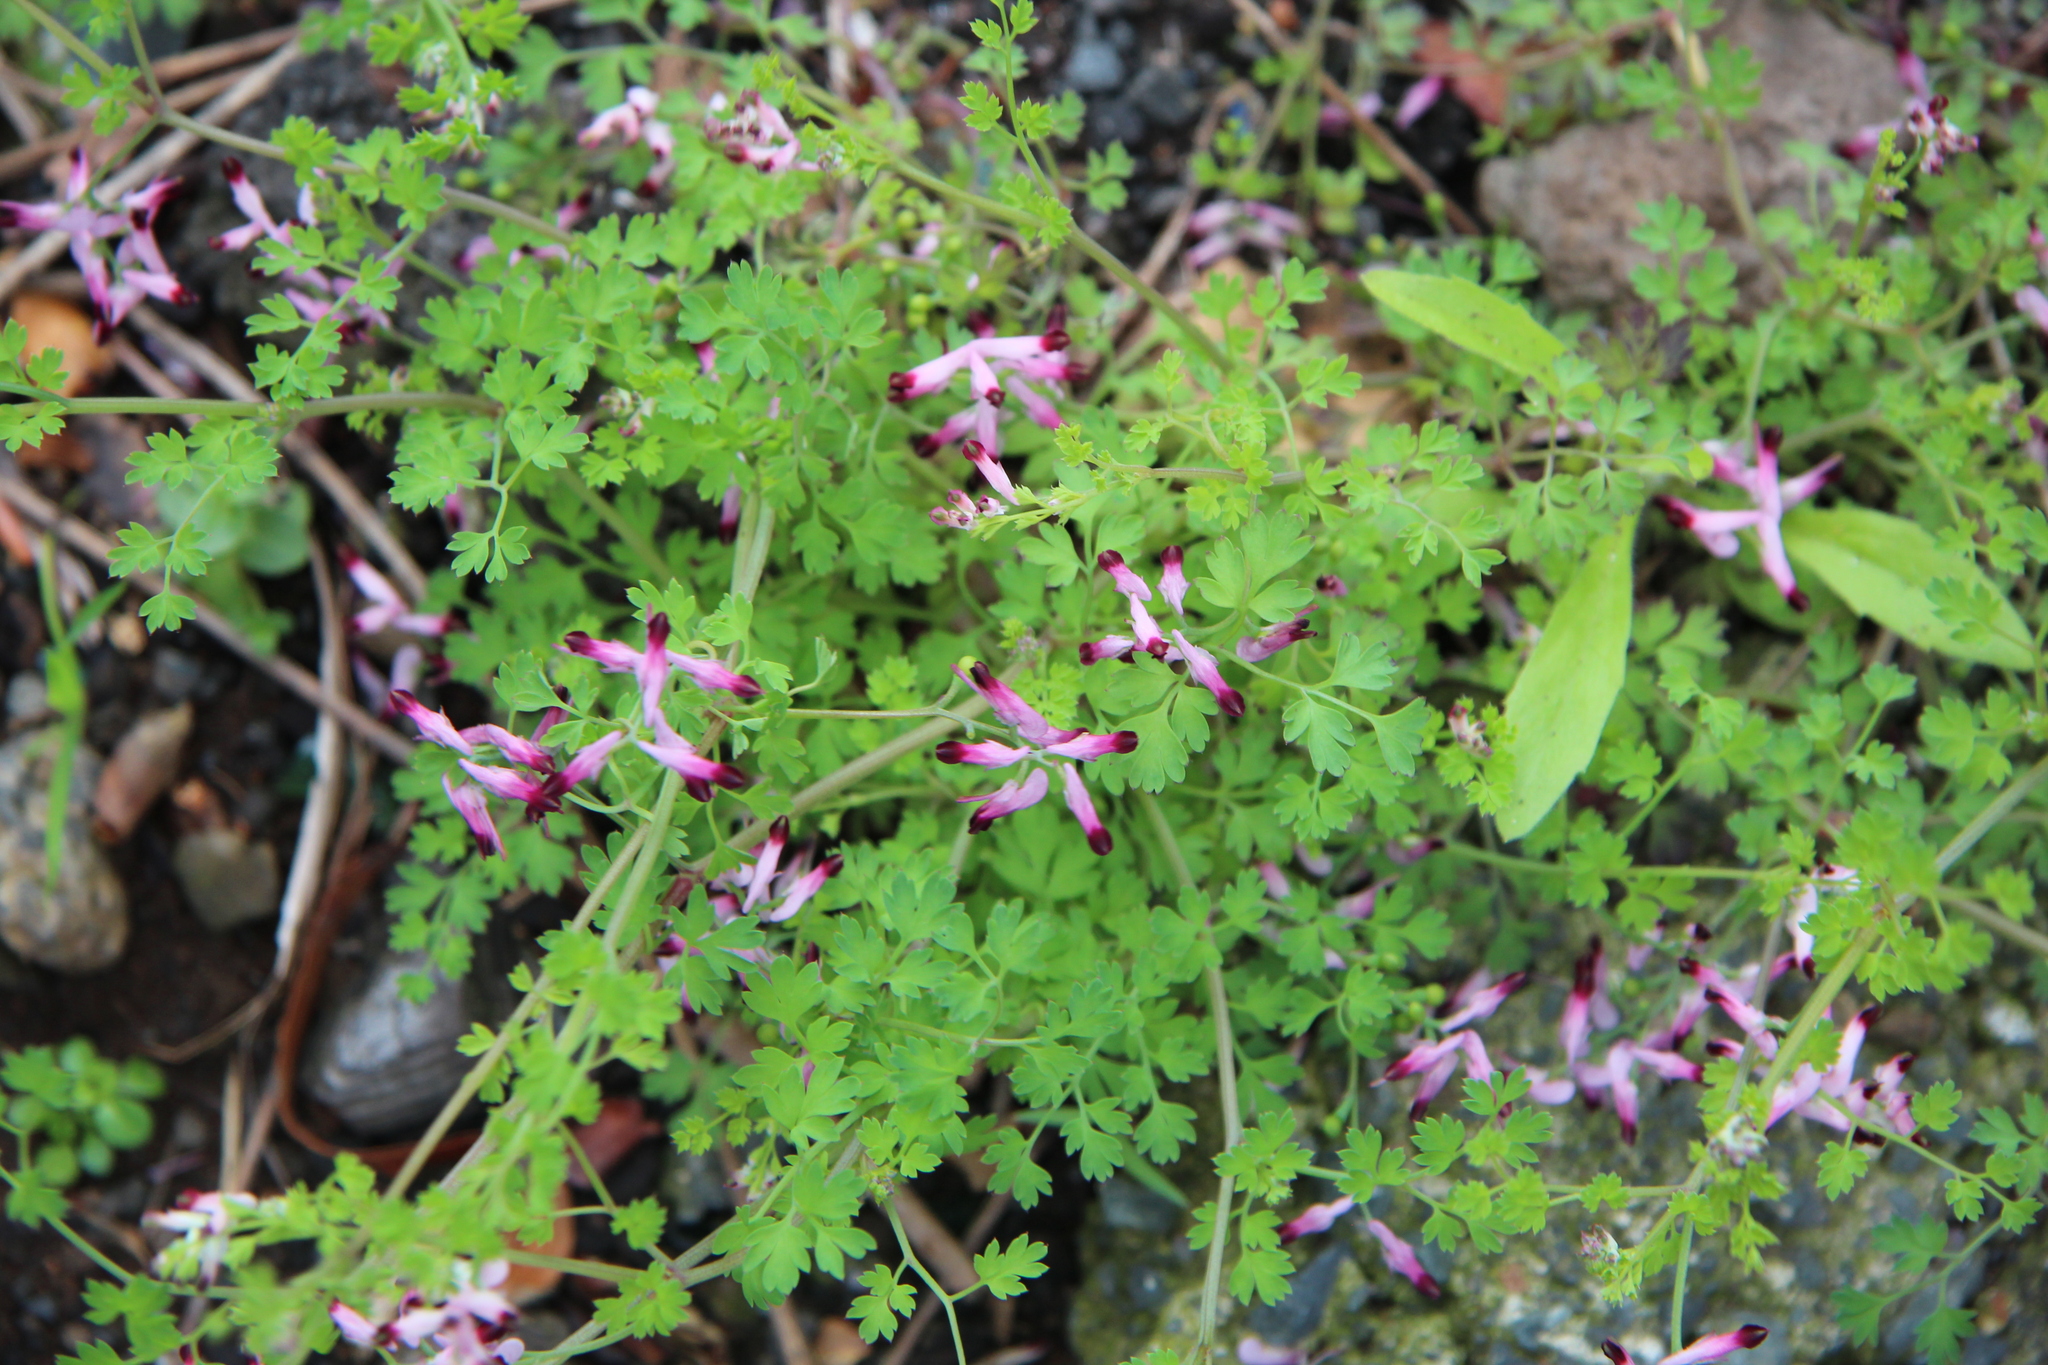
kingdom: Plantae
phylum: Tracheophyta
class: Magnoliopsida
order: Ranunculales
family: Papaveraceae
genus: Fumaria
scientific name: Fumaria muralis
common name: Common ramping-fumitory
